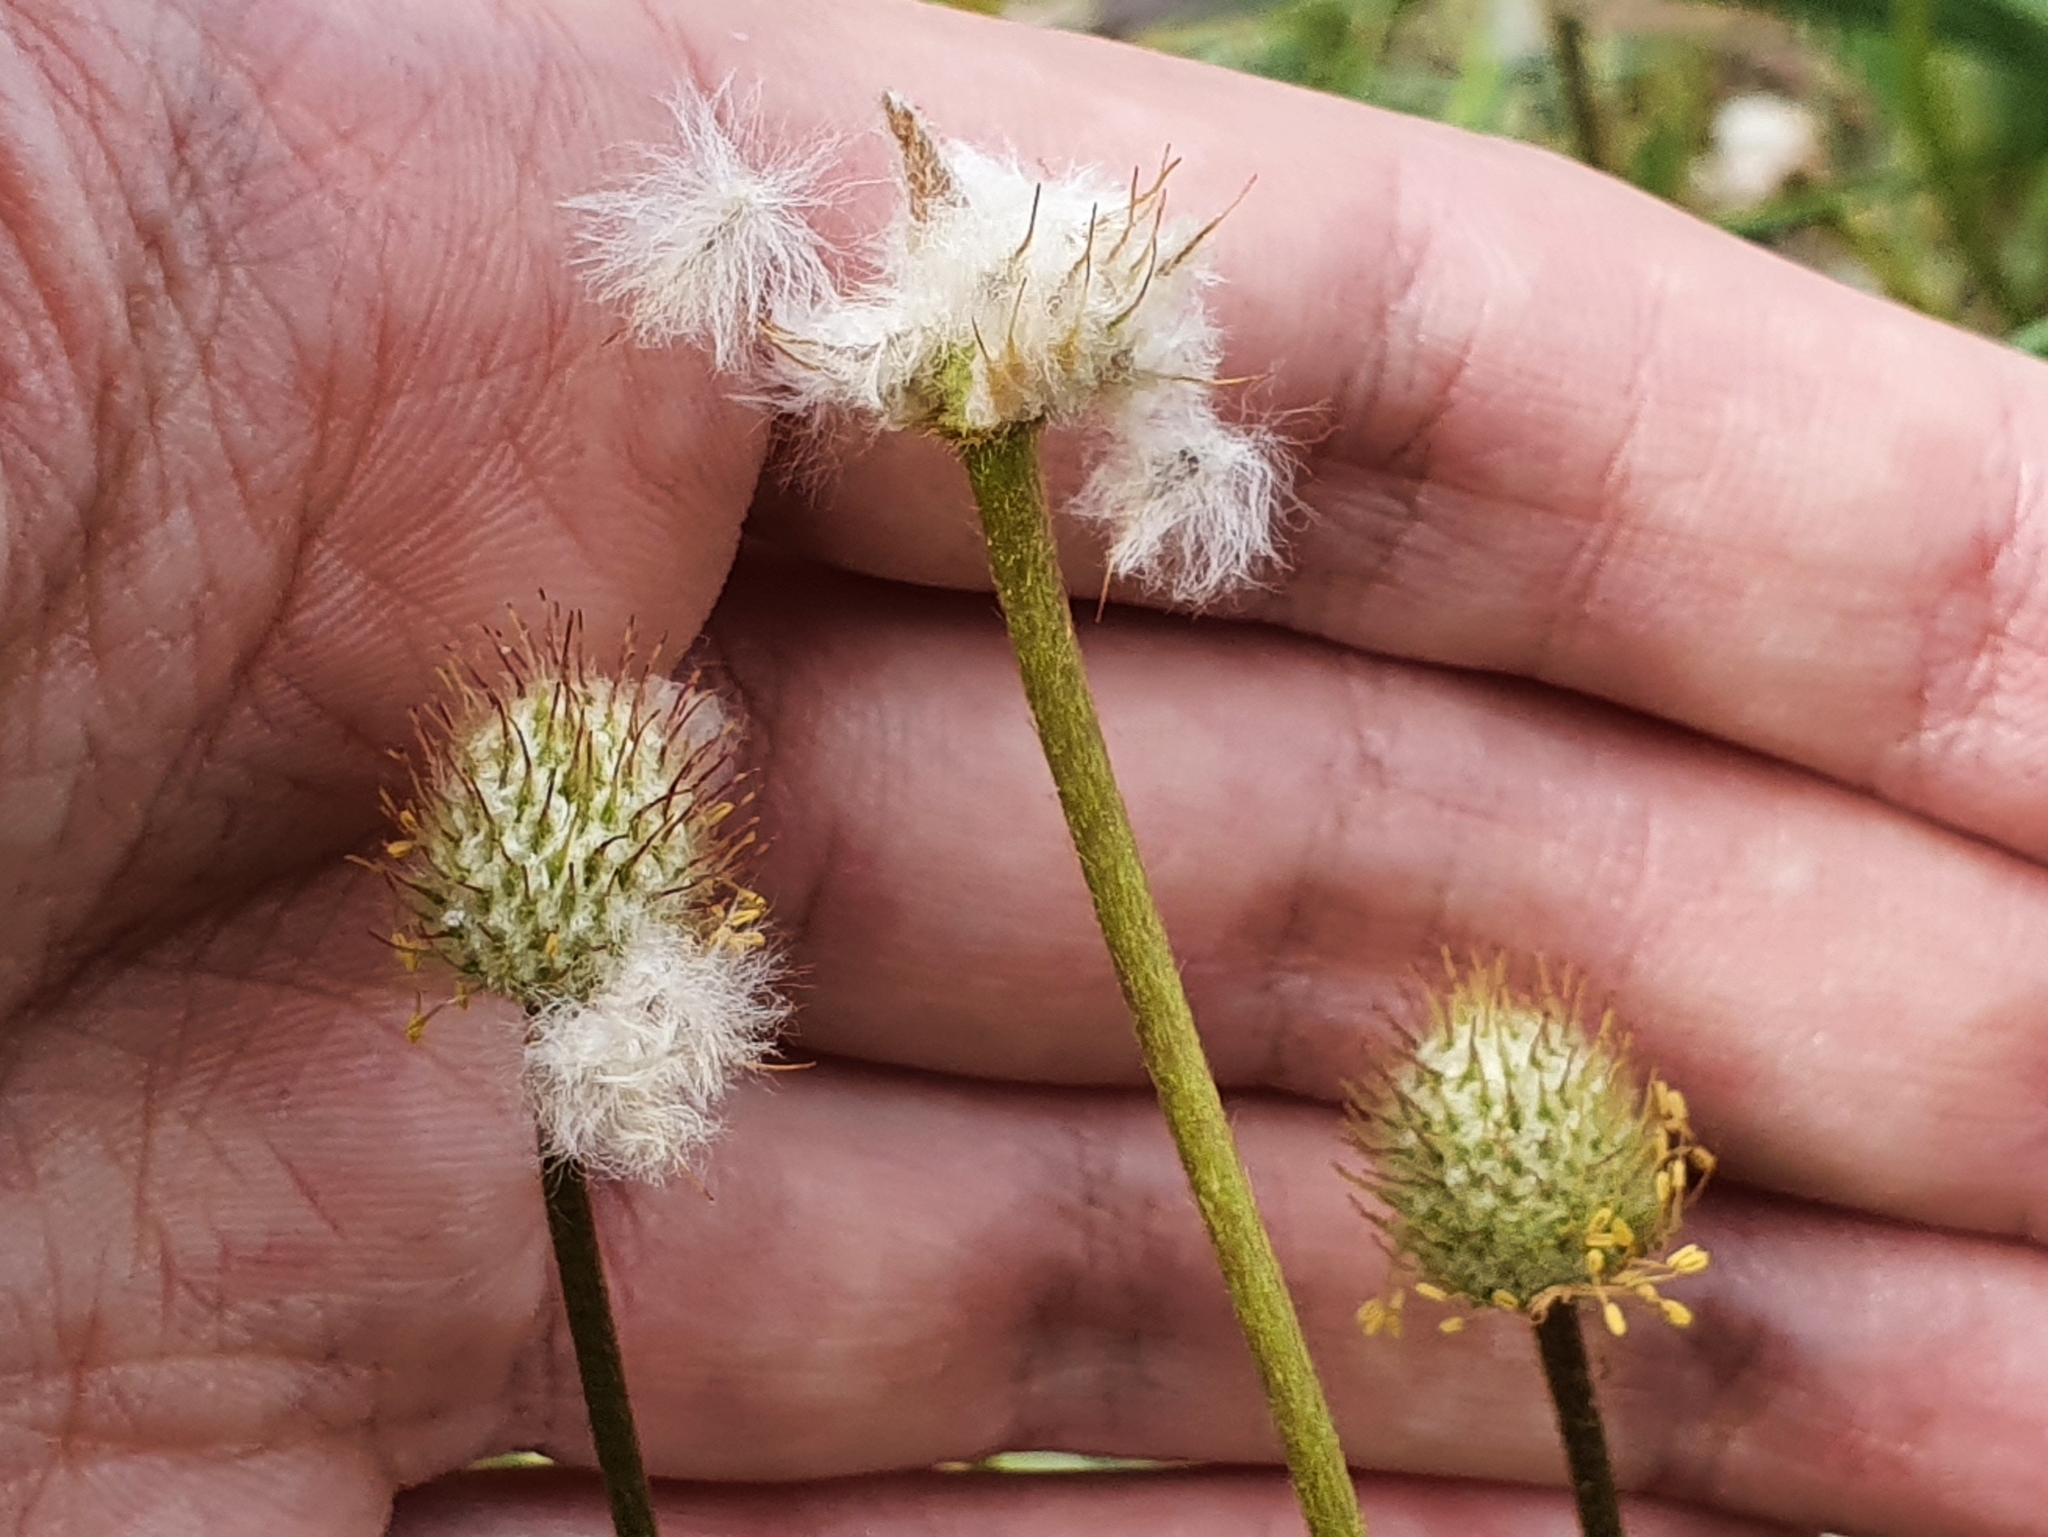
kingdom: Plantae
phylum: Tracheophyta
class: Magnoliopsida
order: Ranunculales
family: Ranunculaceae
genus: Anemone
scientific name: Anemone palmata
